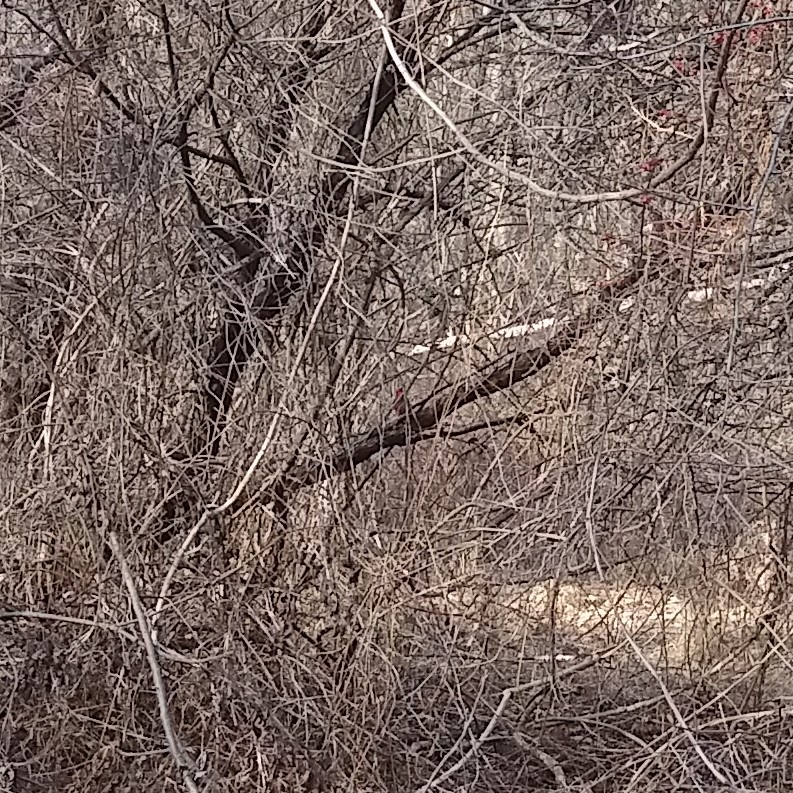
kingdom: Animalia
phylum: Chordata
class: Aves
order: Passeriformes
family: Cardinalidae
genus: Cardinalis
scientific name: Cardinalis cardinalis
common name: Northern cardinal
